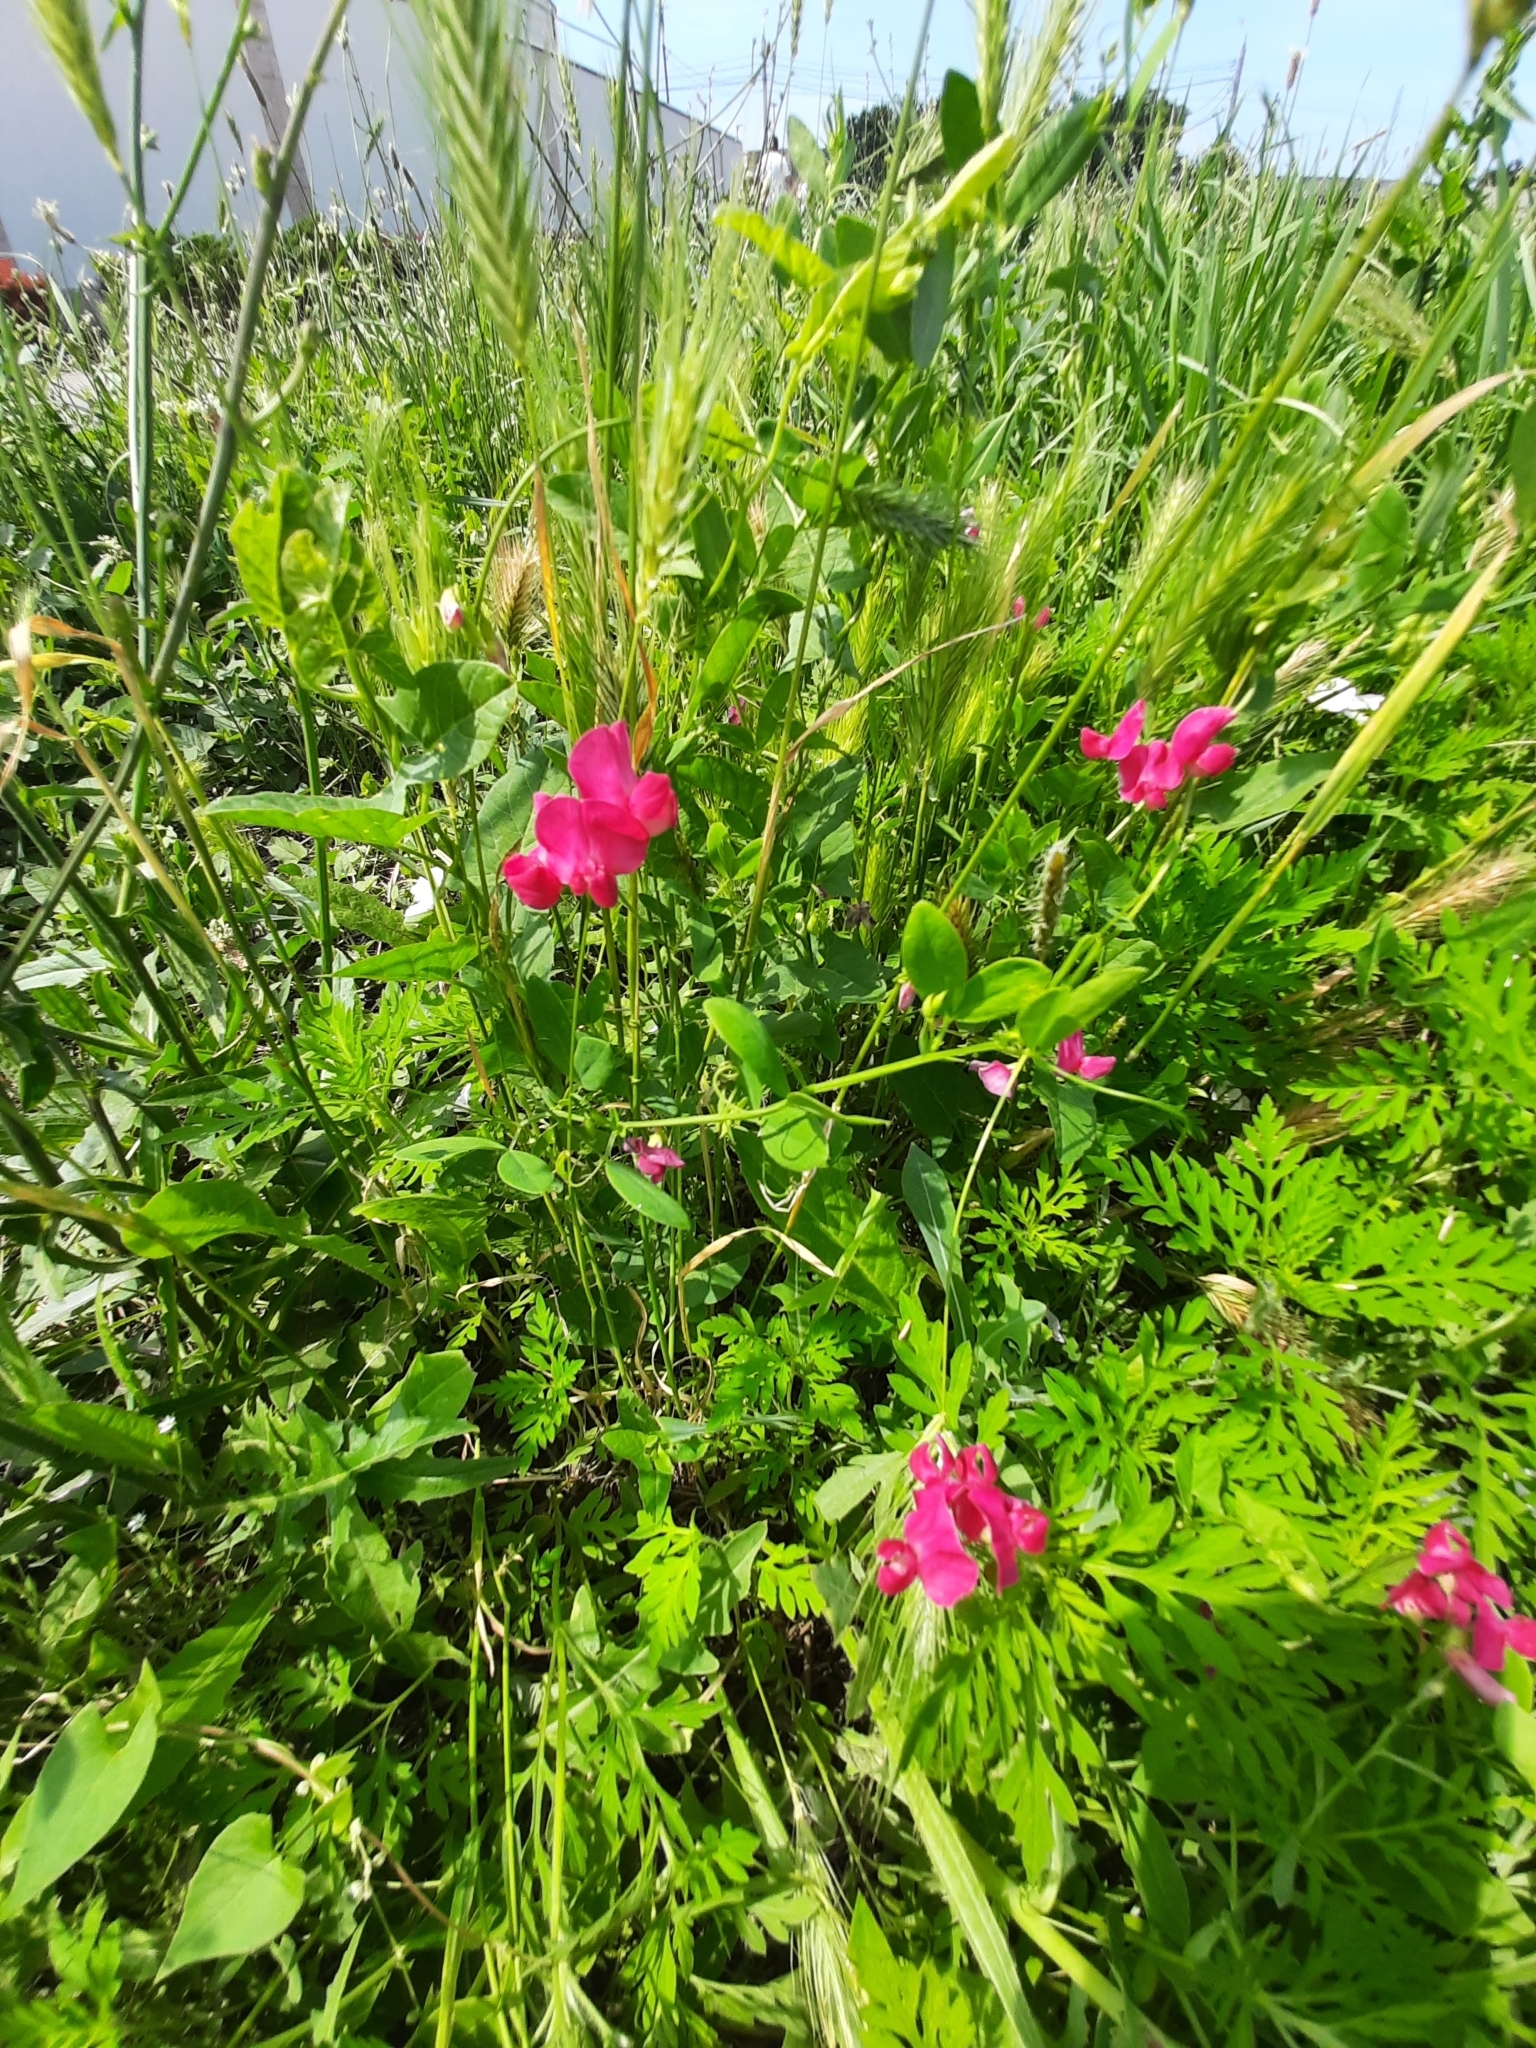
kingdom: Plantae
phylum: Tracheophyta
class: Magnoliopsida
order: Fabales
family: Fabaceae
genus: Lathyrus
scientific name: Lathyrus tuberosus
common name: Tuberous pea
